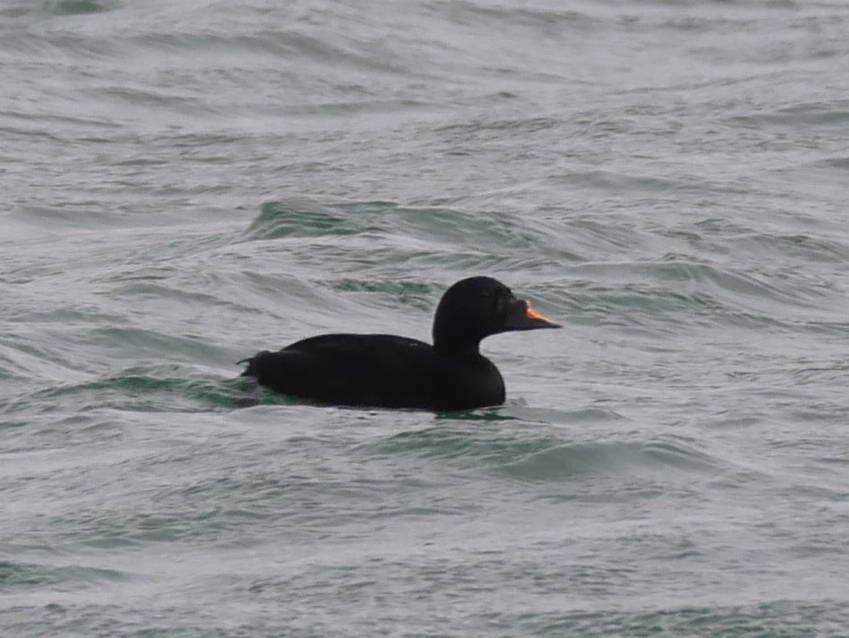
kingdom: Animalia
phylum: Chordata
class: Aves
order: Anseriformes
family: Anatidae
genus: Melanitta
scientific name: Melanitta nigra
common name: Common scoter
